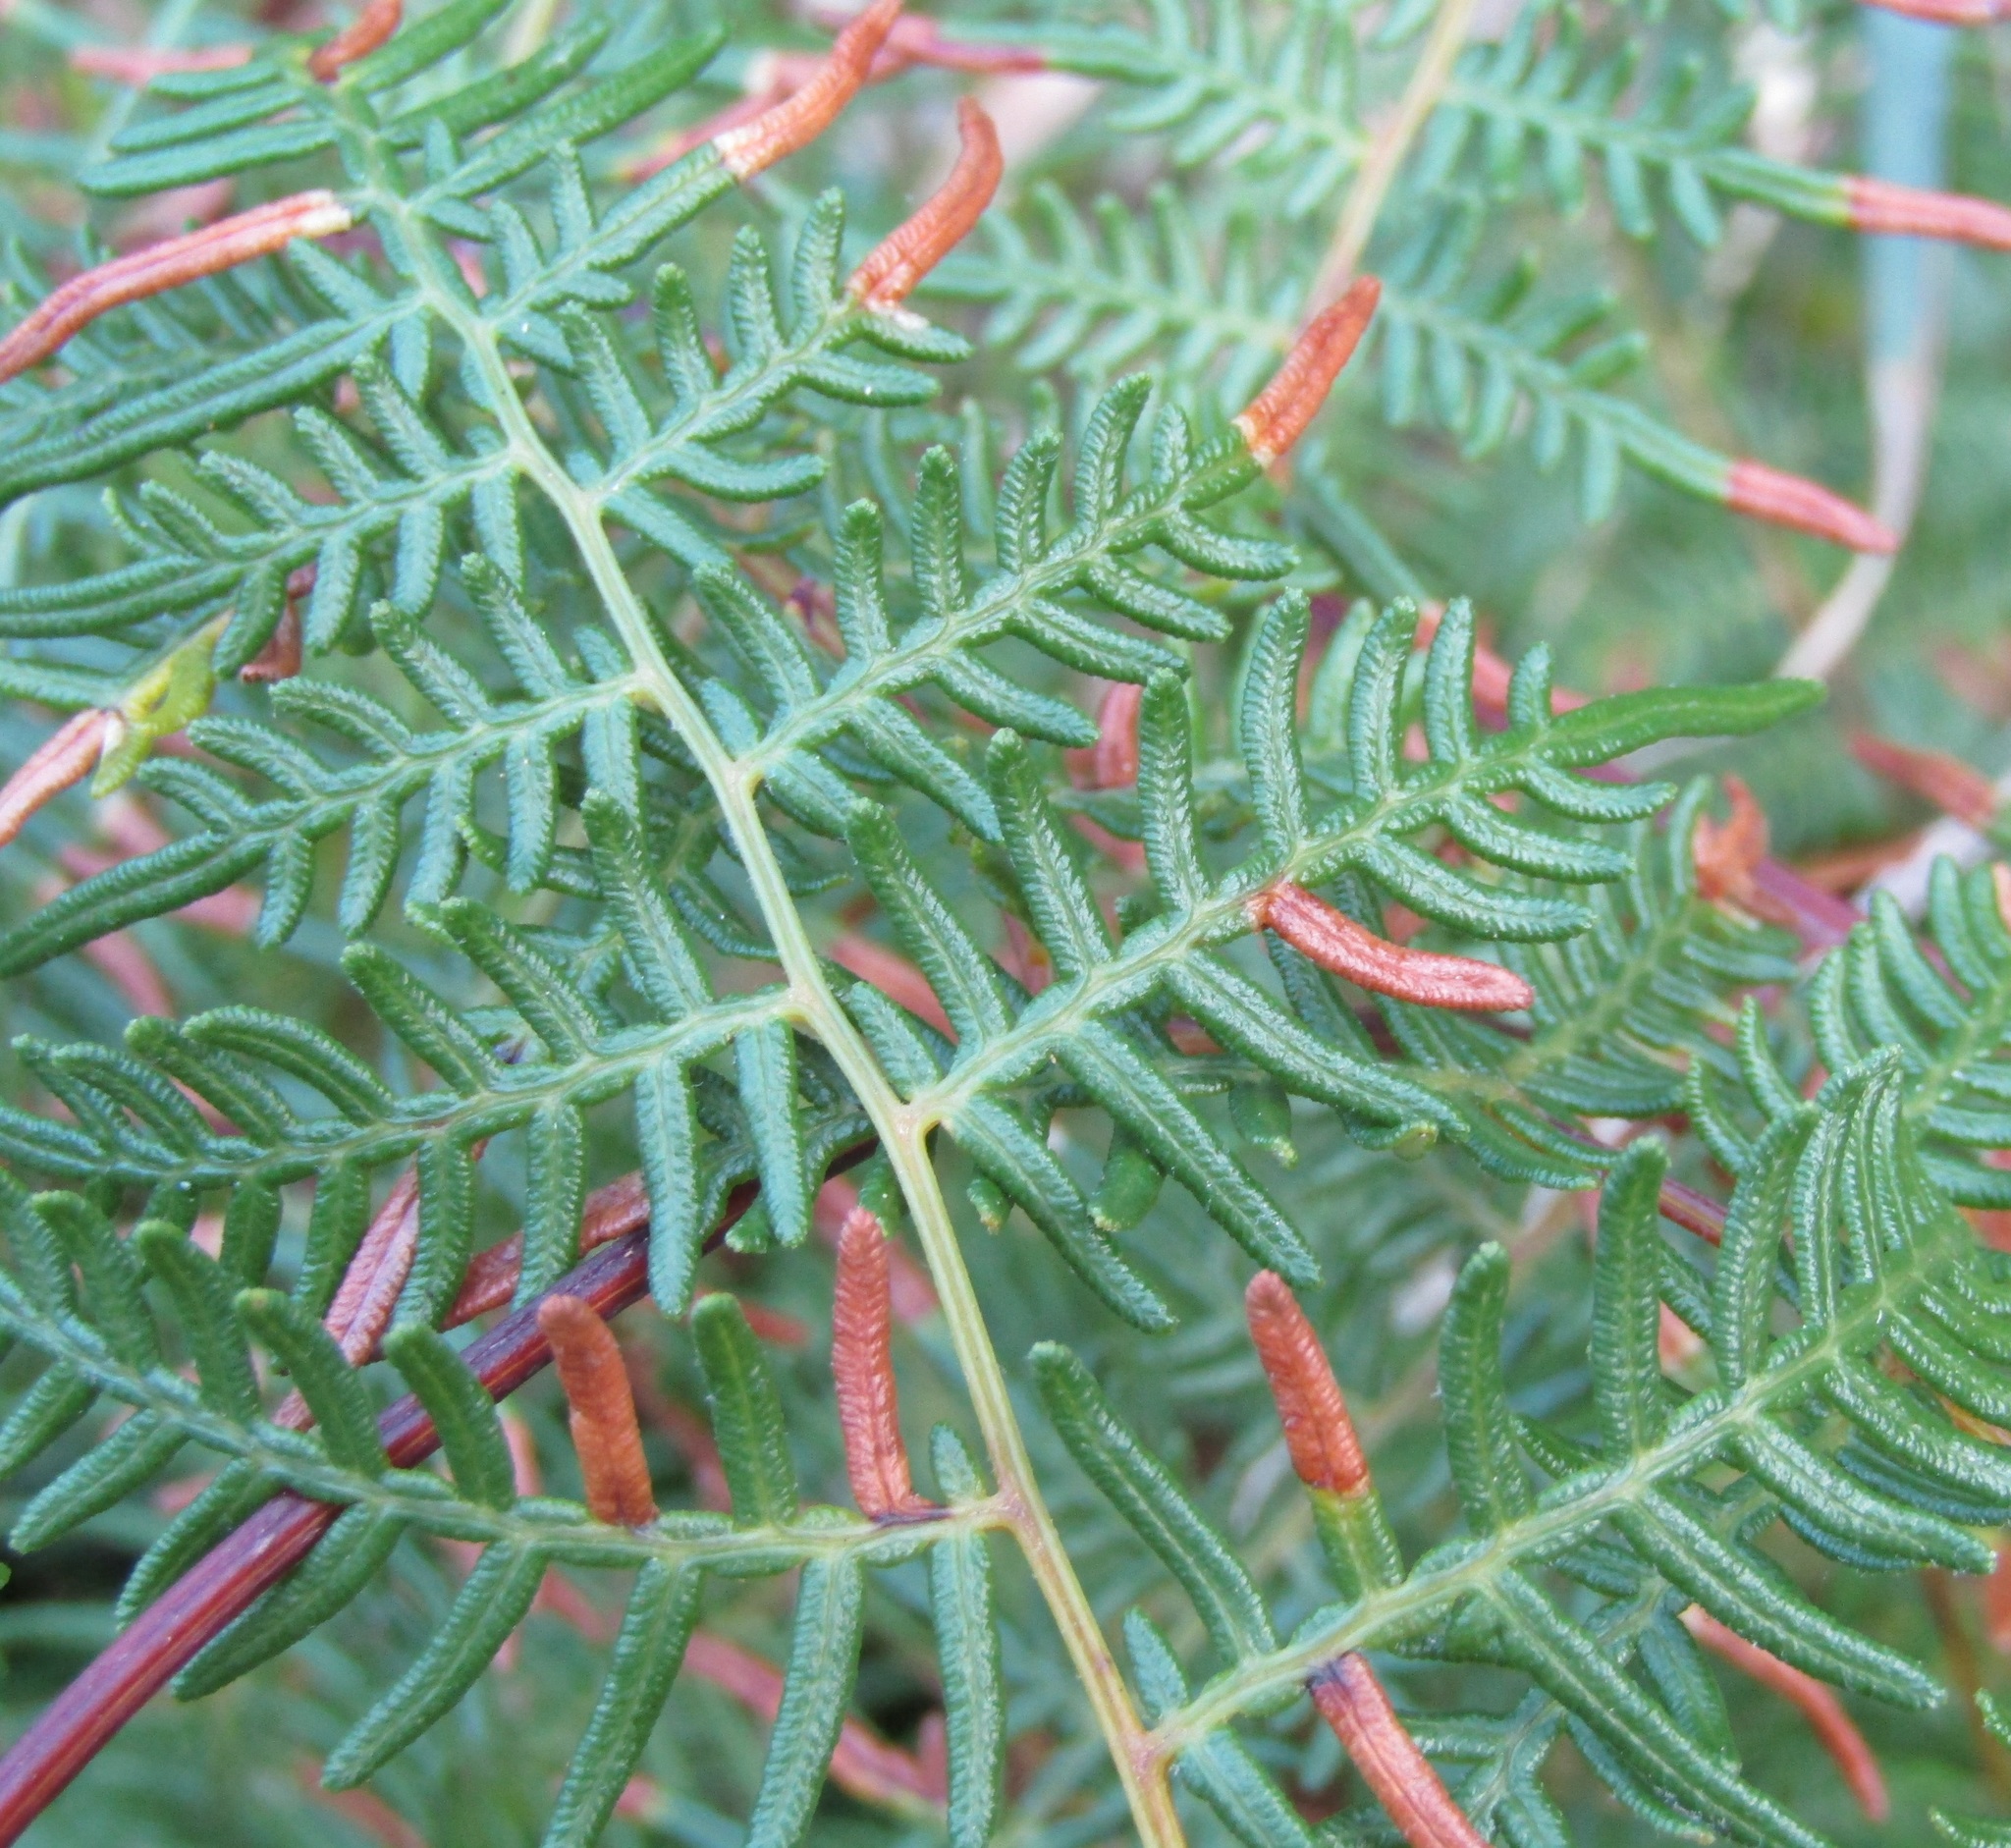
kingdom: Plantae
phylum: Tracheophyta
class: Polypodiopsida
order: Polypodiales
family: Dennstaedtiaceae
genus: Pteridium
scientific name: Pteridium esculentum
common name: Bracken fern
